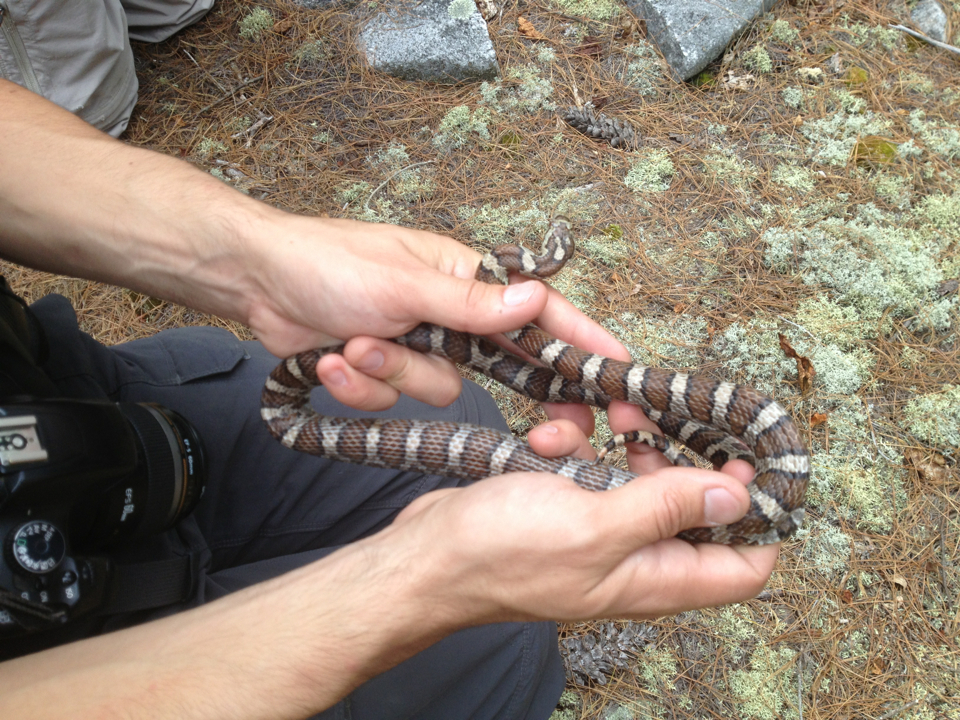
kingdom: Animalia
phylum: Chordata
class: Squamata
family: Colubridae
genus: Lampropeltis
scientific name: Lampropeltis triangulum
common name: Eastern milksnake
